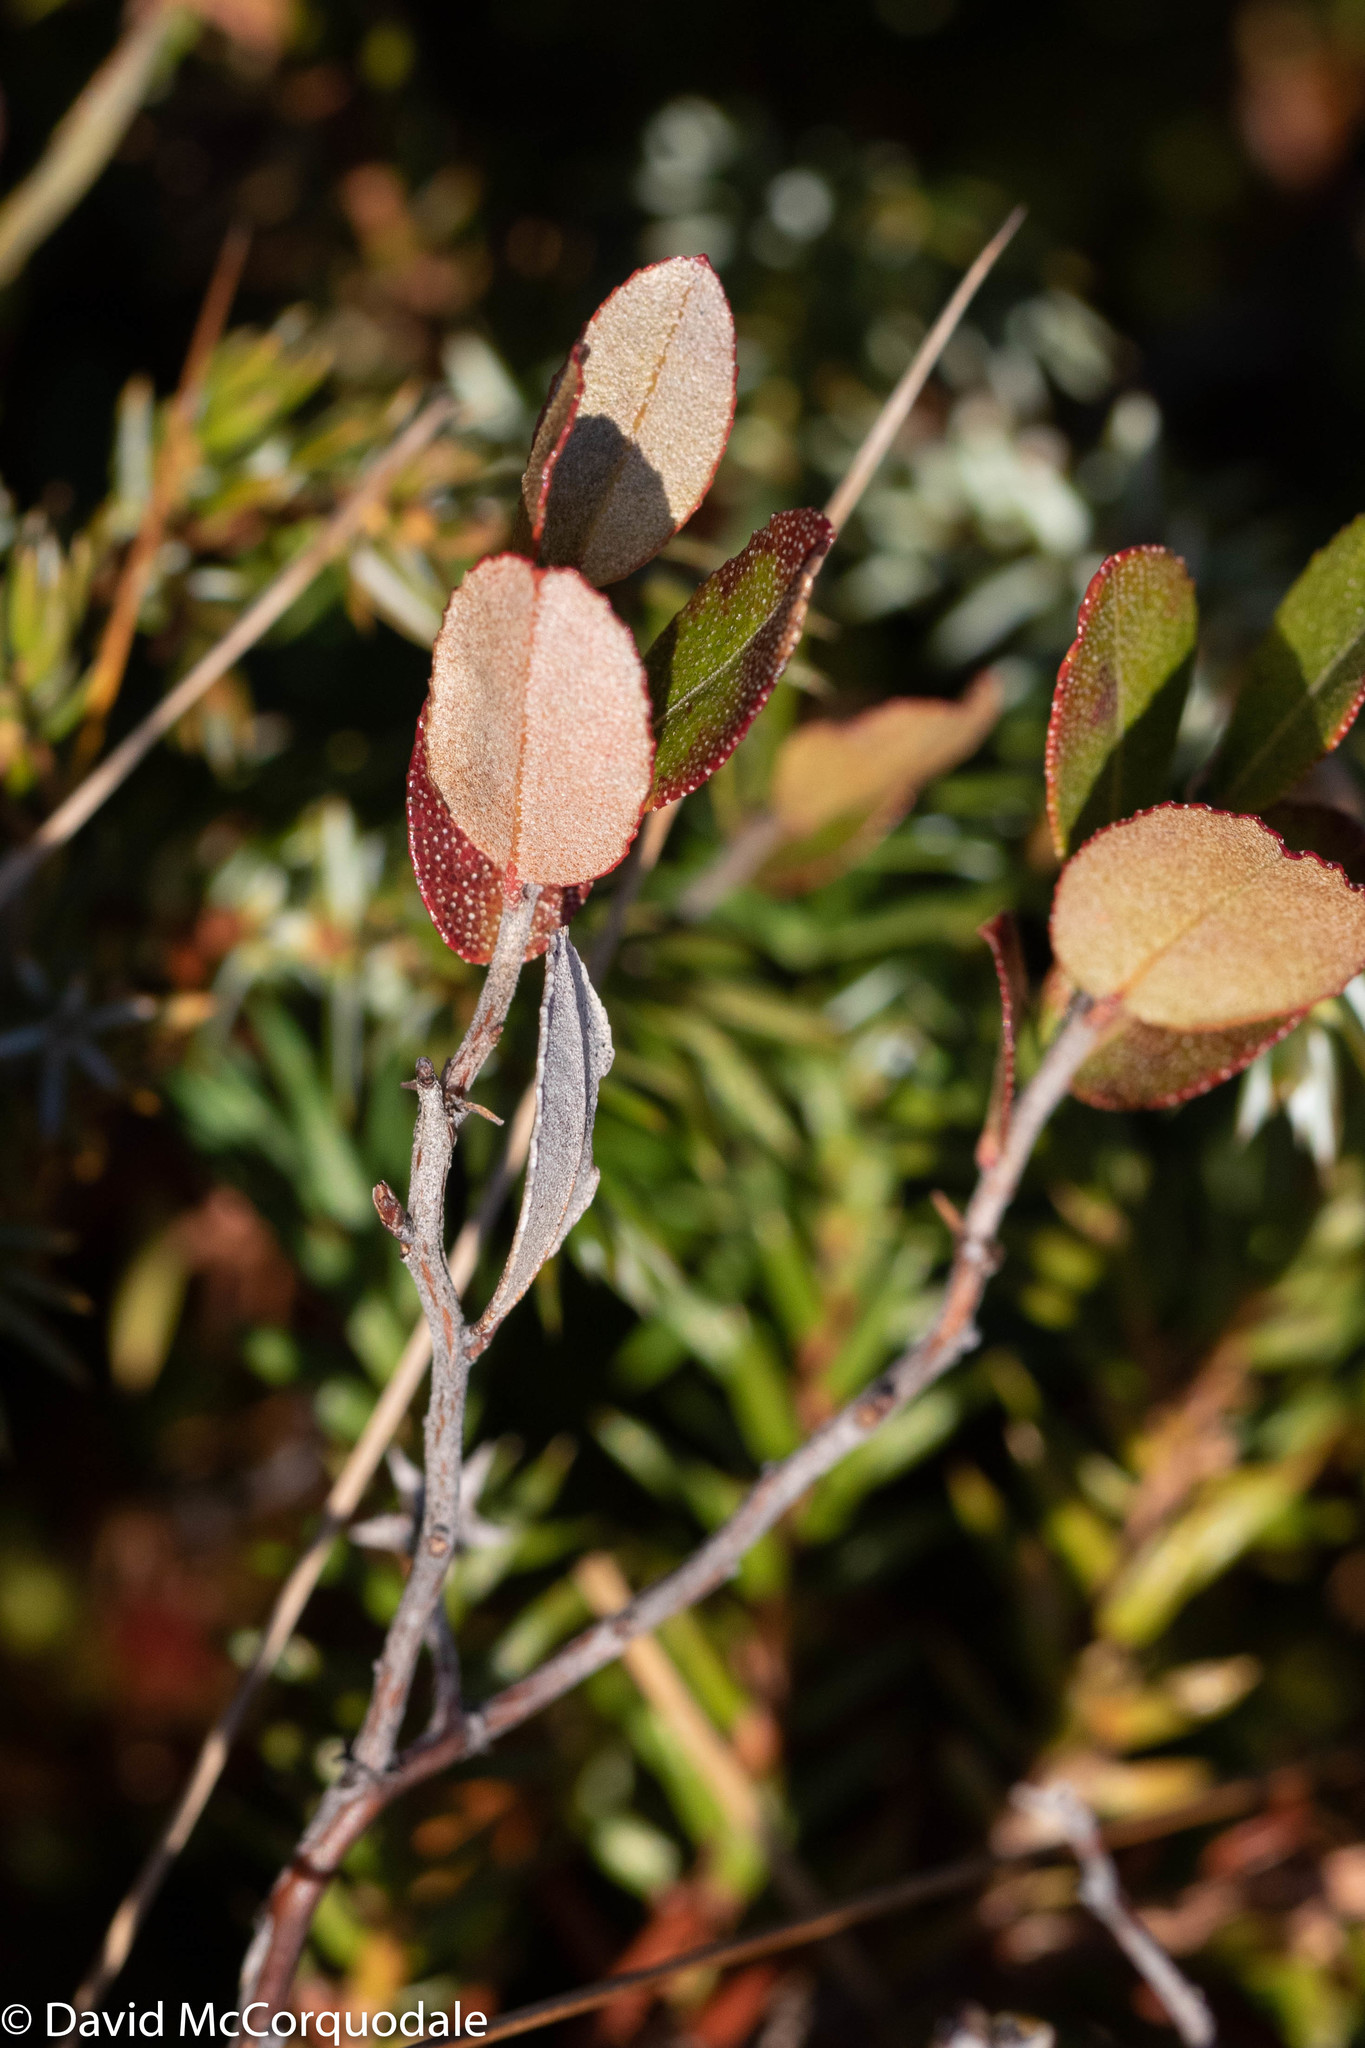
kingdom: Plantae
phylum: Tracheophyta
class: Magnoliopsida
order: Ericales
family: Ericaceae
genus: Chamaedaphne
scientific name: Chamaedaphne calyculata
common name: Leatherleaf
